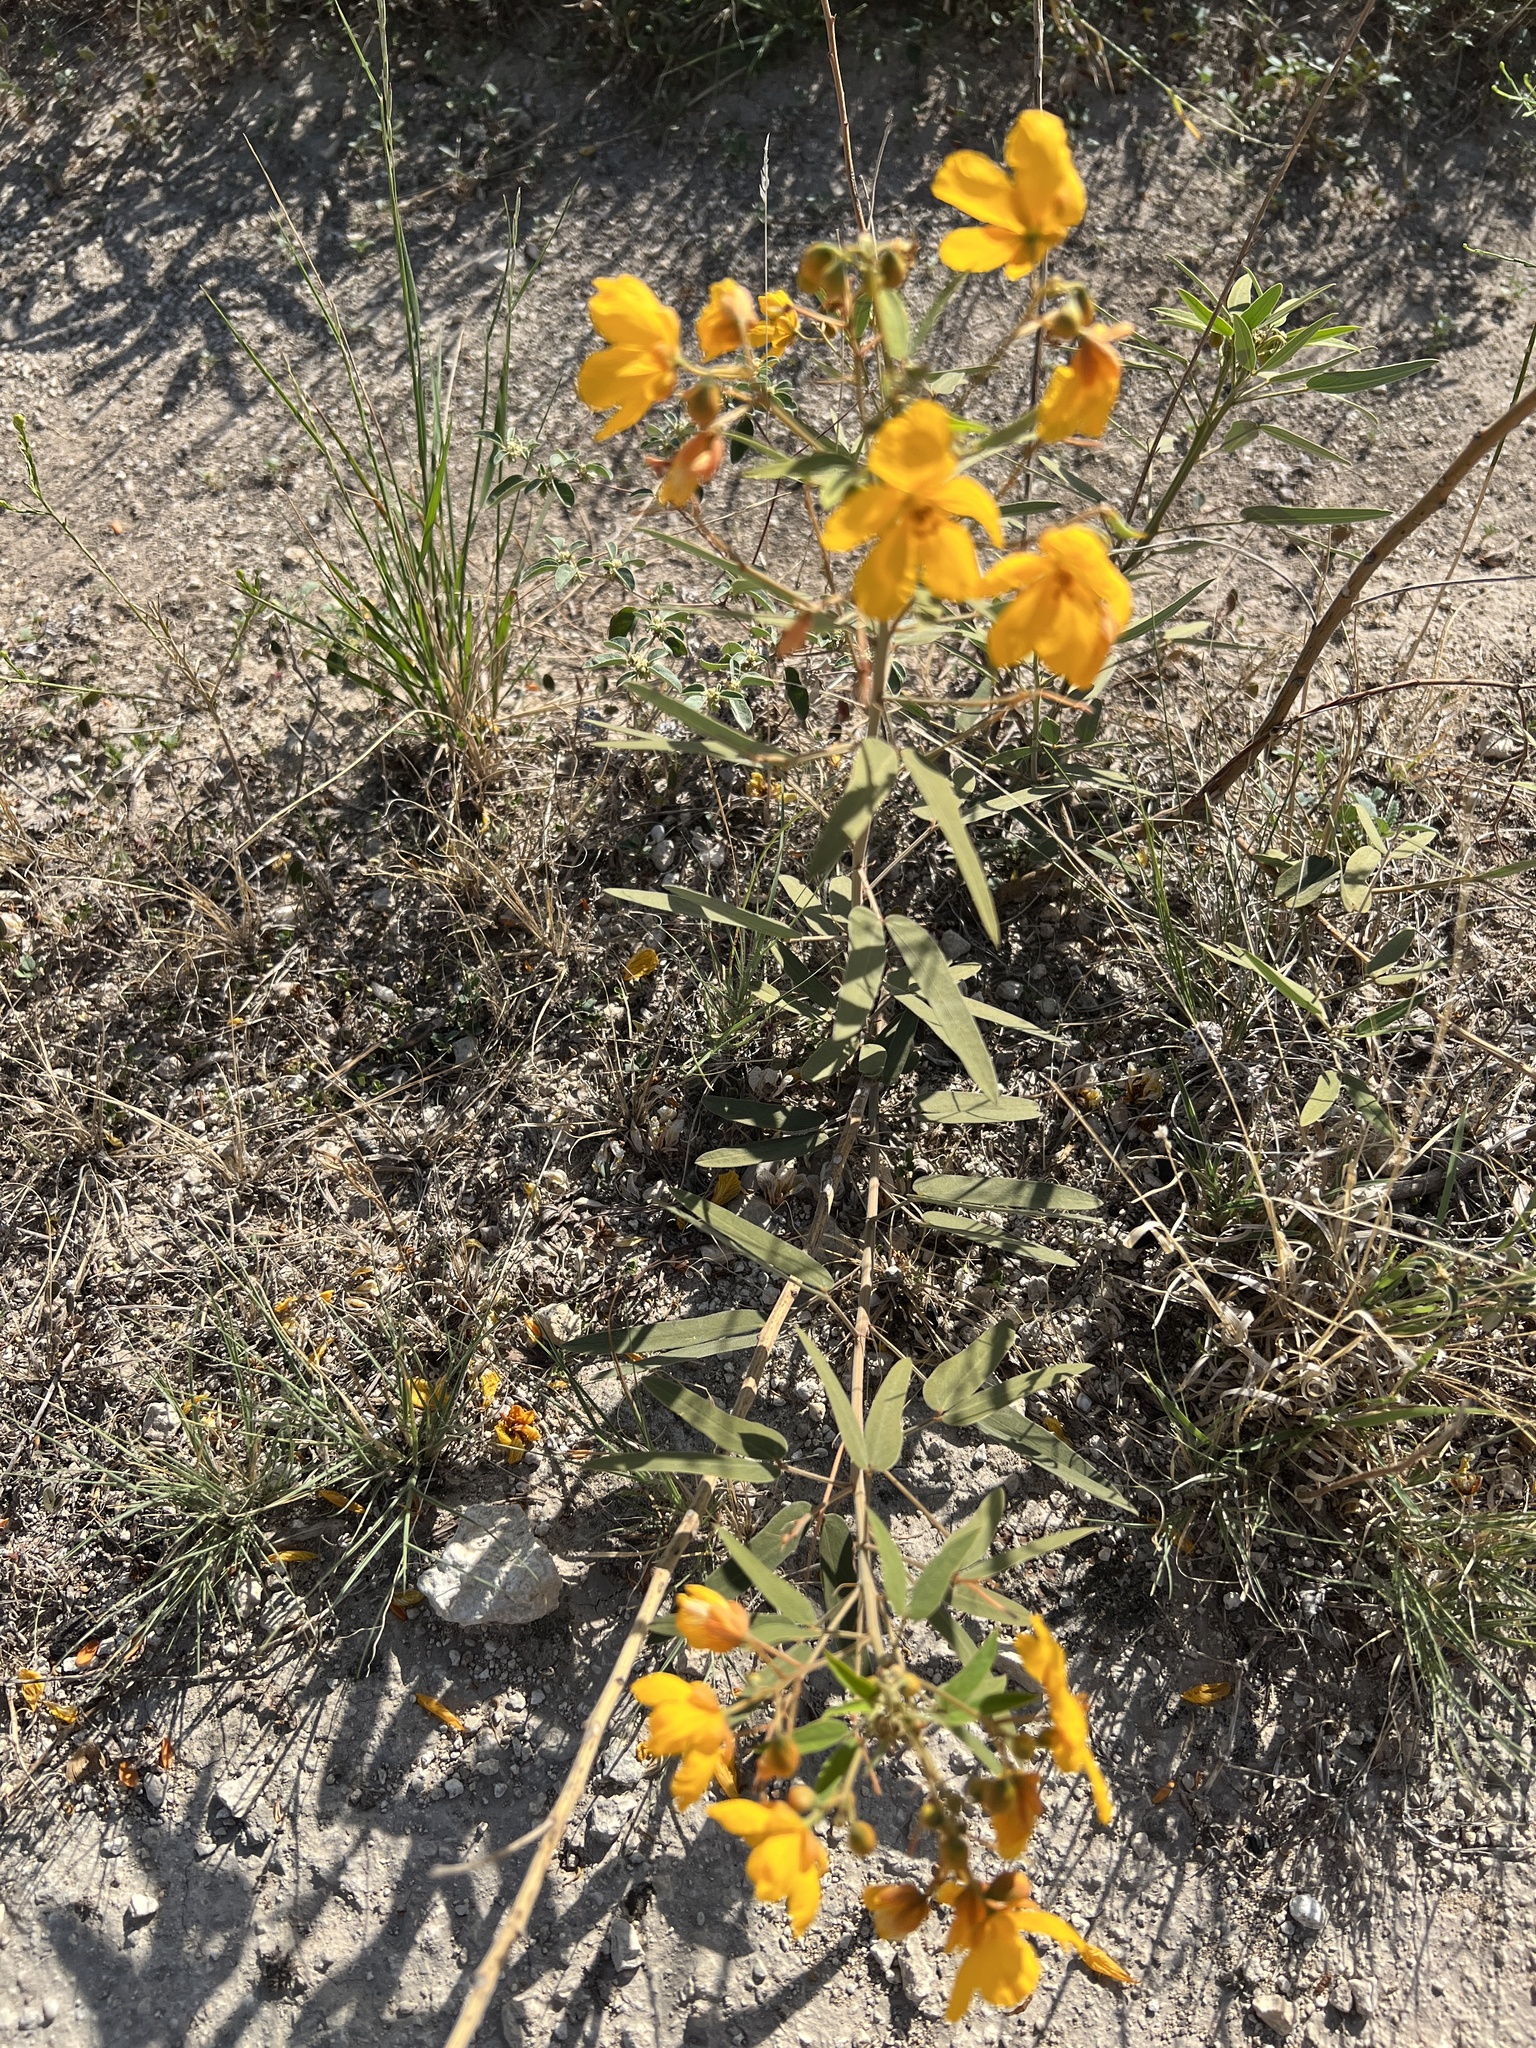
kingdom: Plantae
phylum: Tracheophyta
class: Magnoliopsida
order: Fabales
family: Fabaceae
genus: Senna
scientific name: Senna roemeriana
